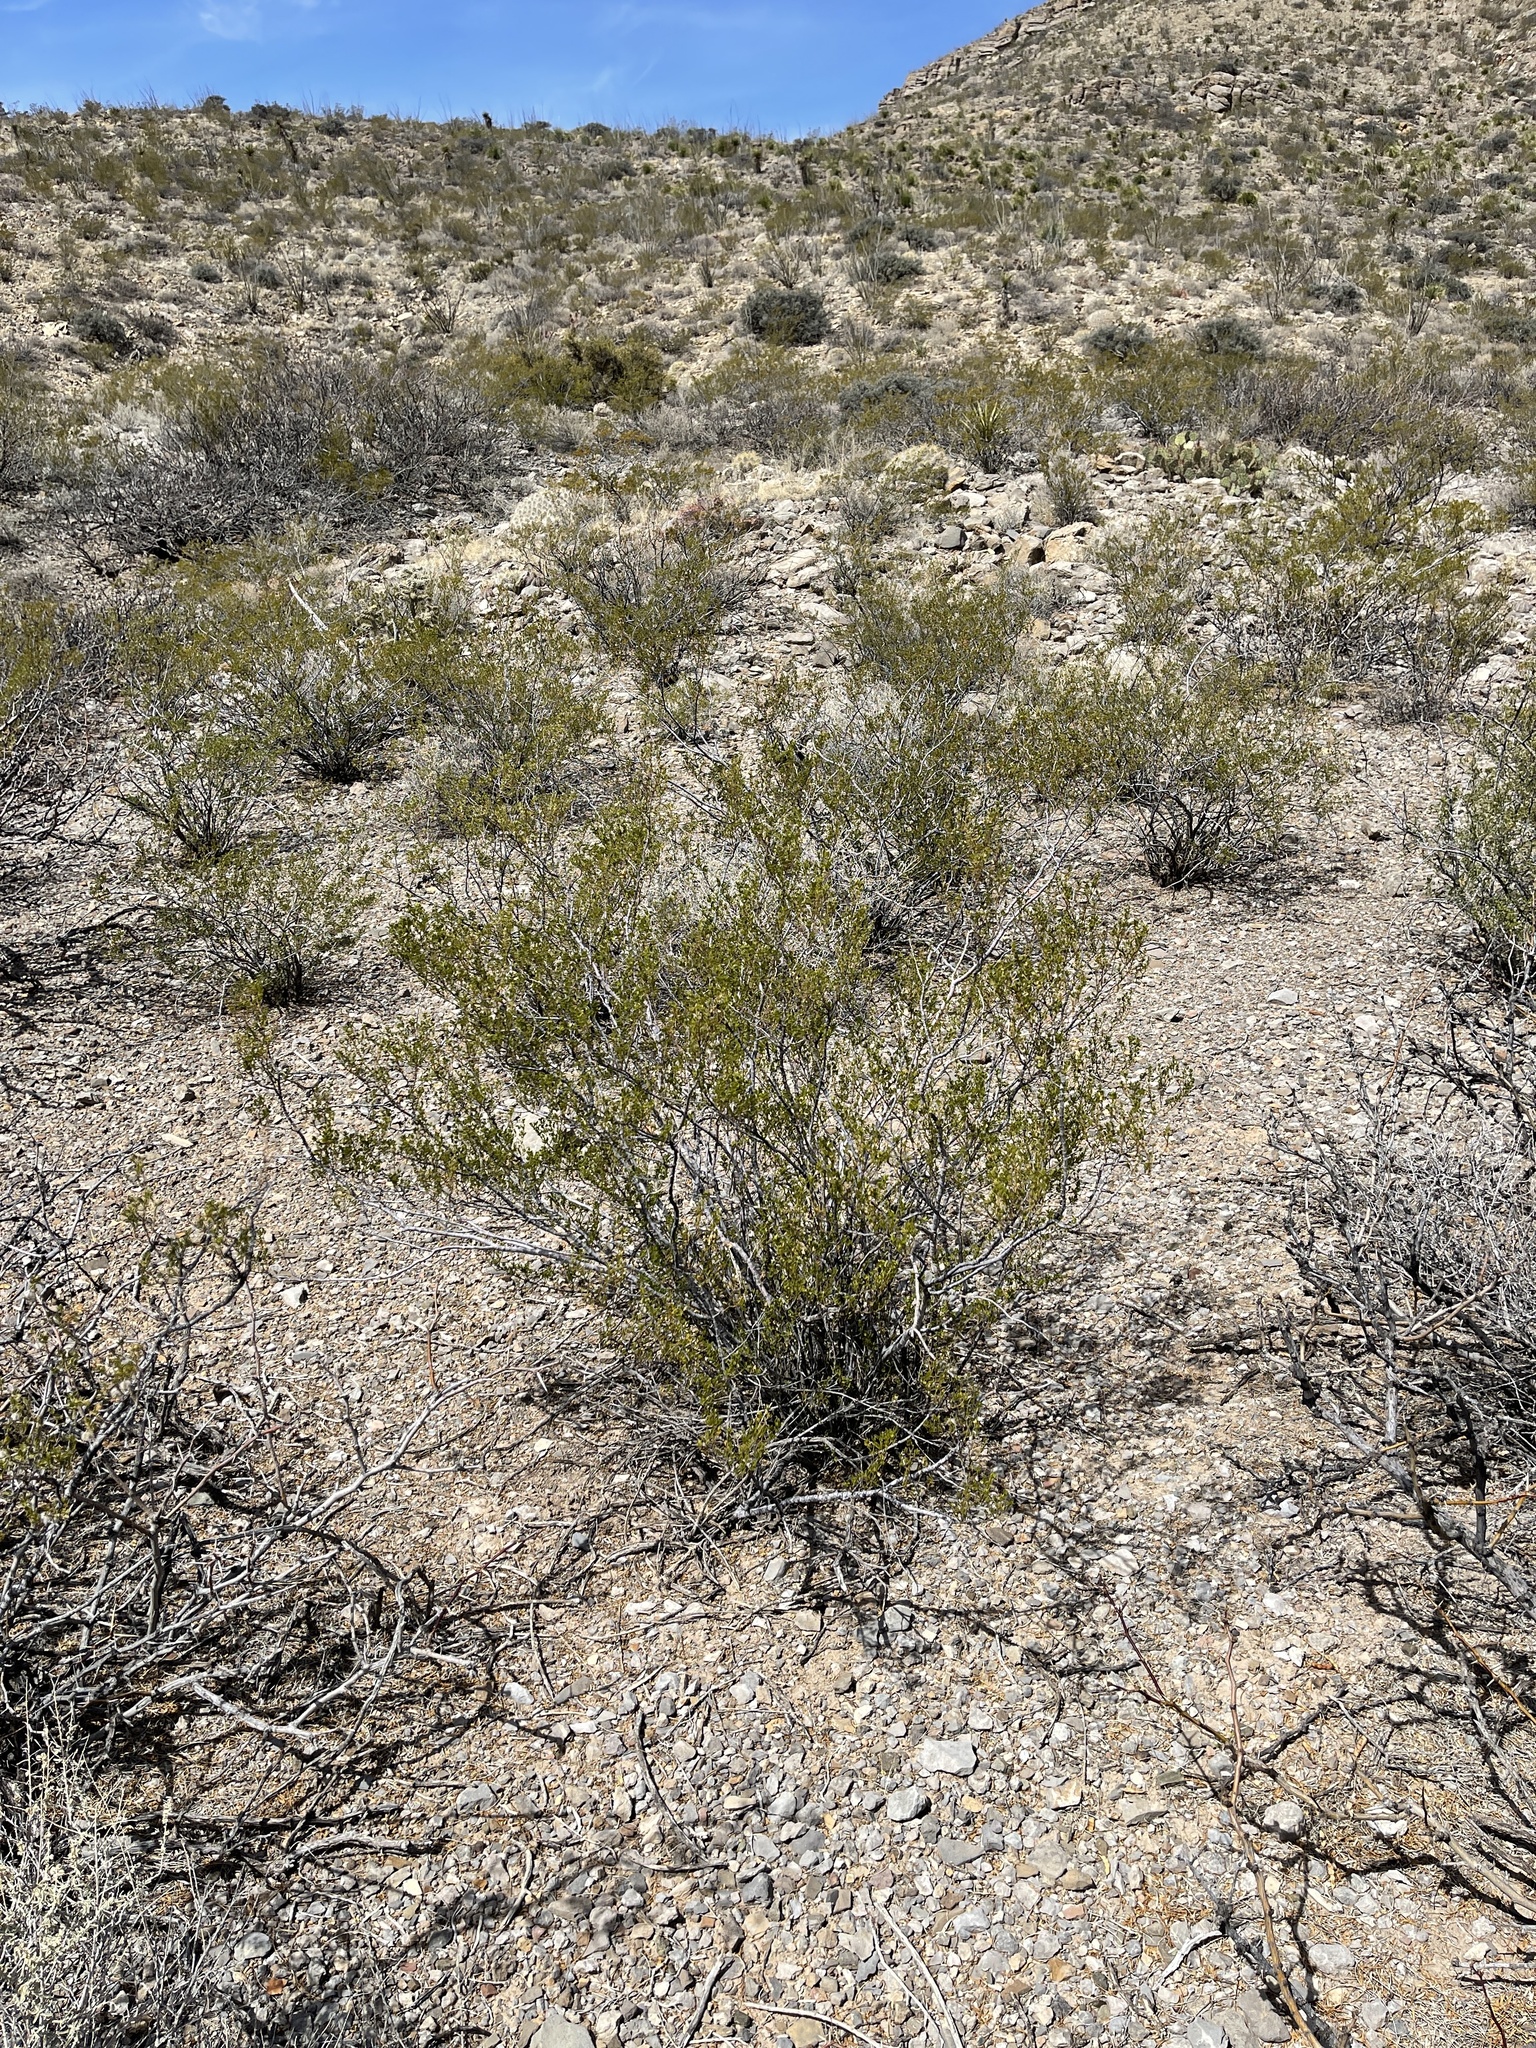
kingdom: Plantae
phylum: Tracheophyta
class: Magnoliopsida
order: Zygophyllales
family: Zygophyllaceae
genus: Larrea
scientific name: Larrea tridentata
